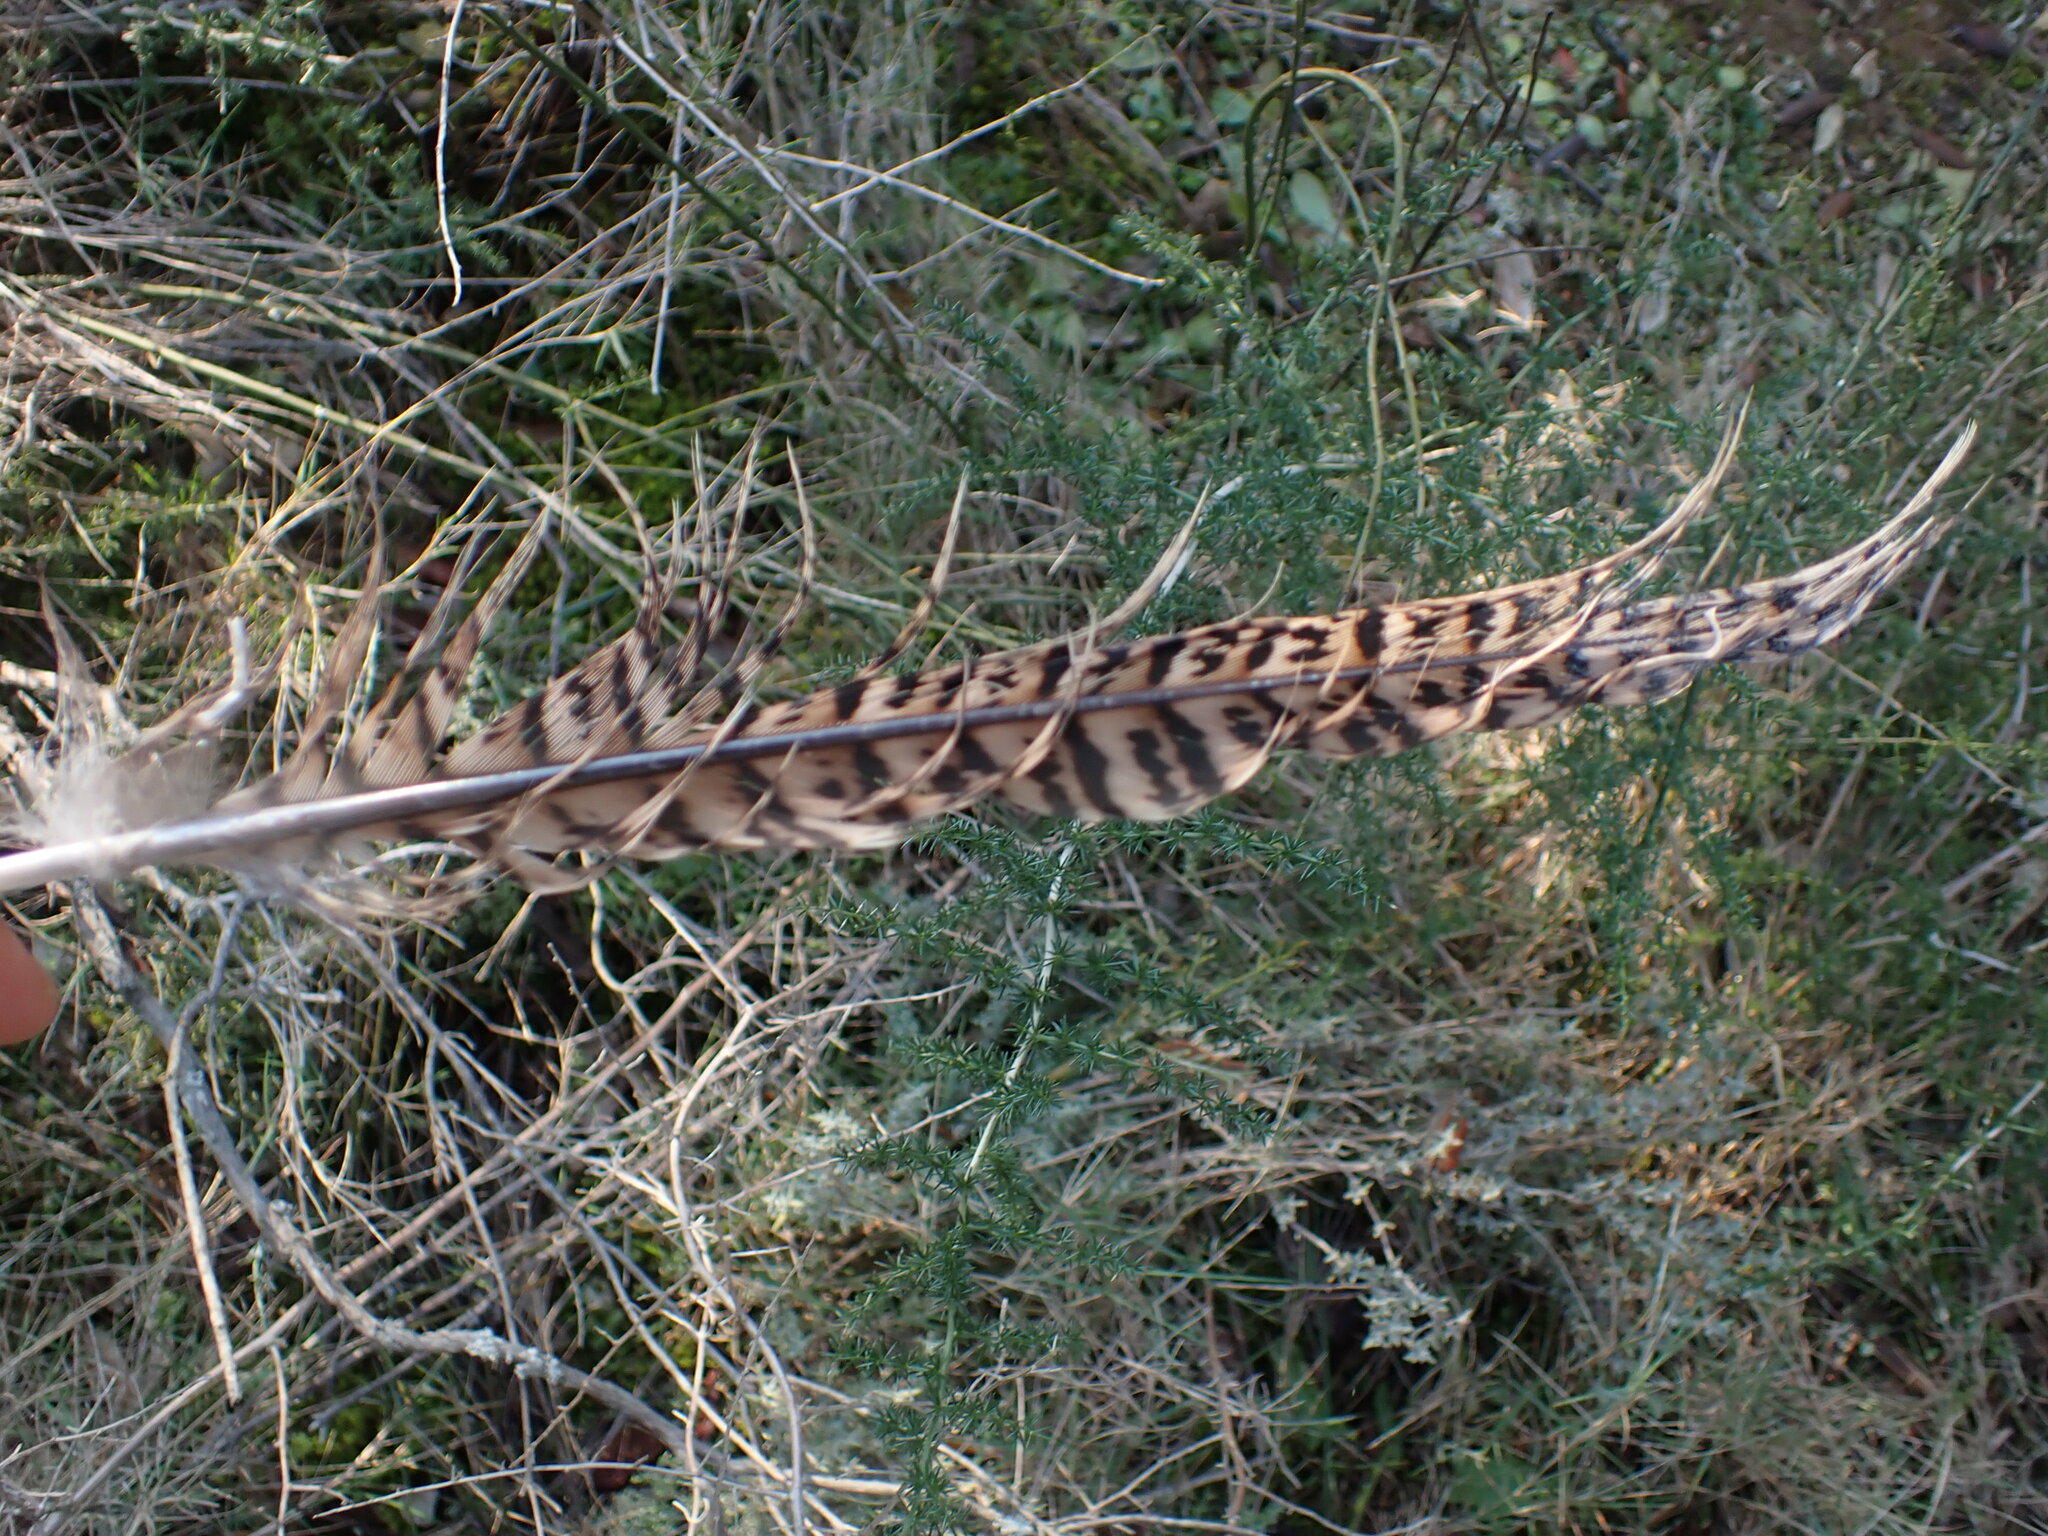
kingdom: Animalia
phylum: Chordata
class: Aves
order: Galliformes
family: Phasianidae
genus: Phasianus
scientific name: Phasianus colchicus
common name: Common pheasant
